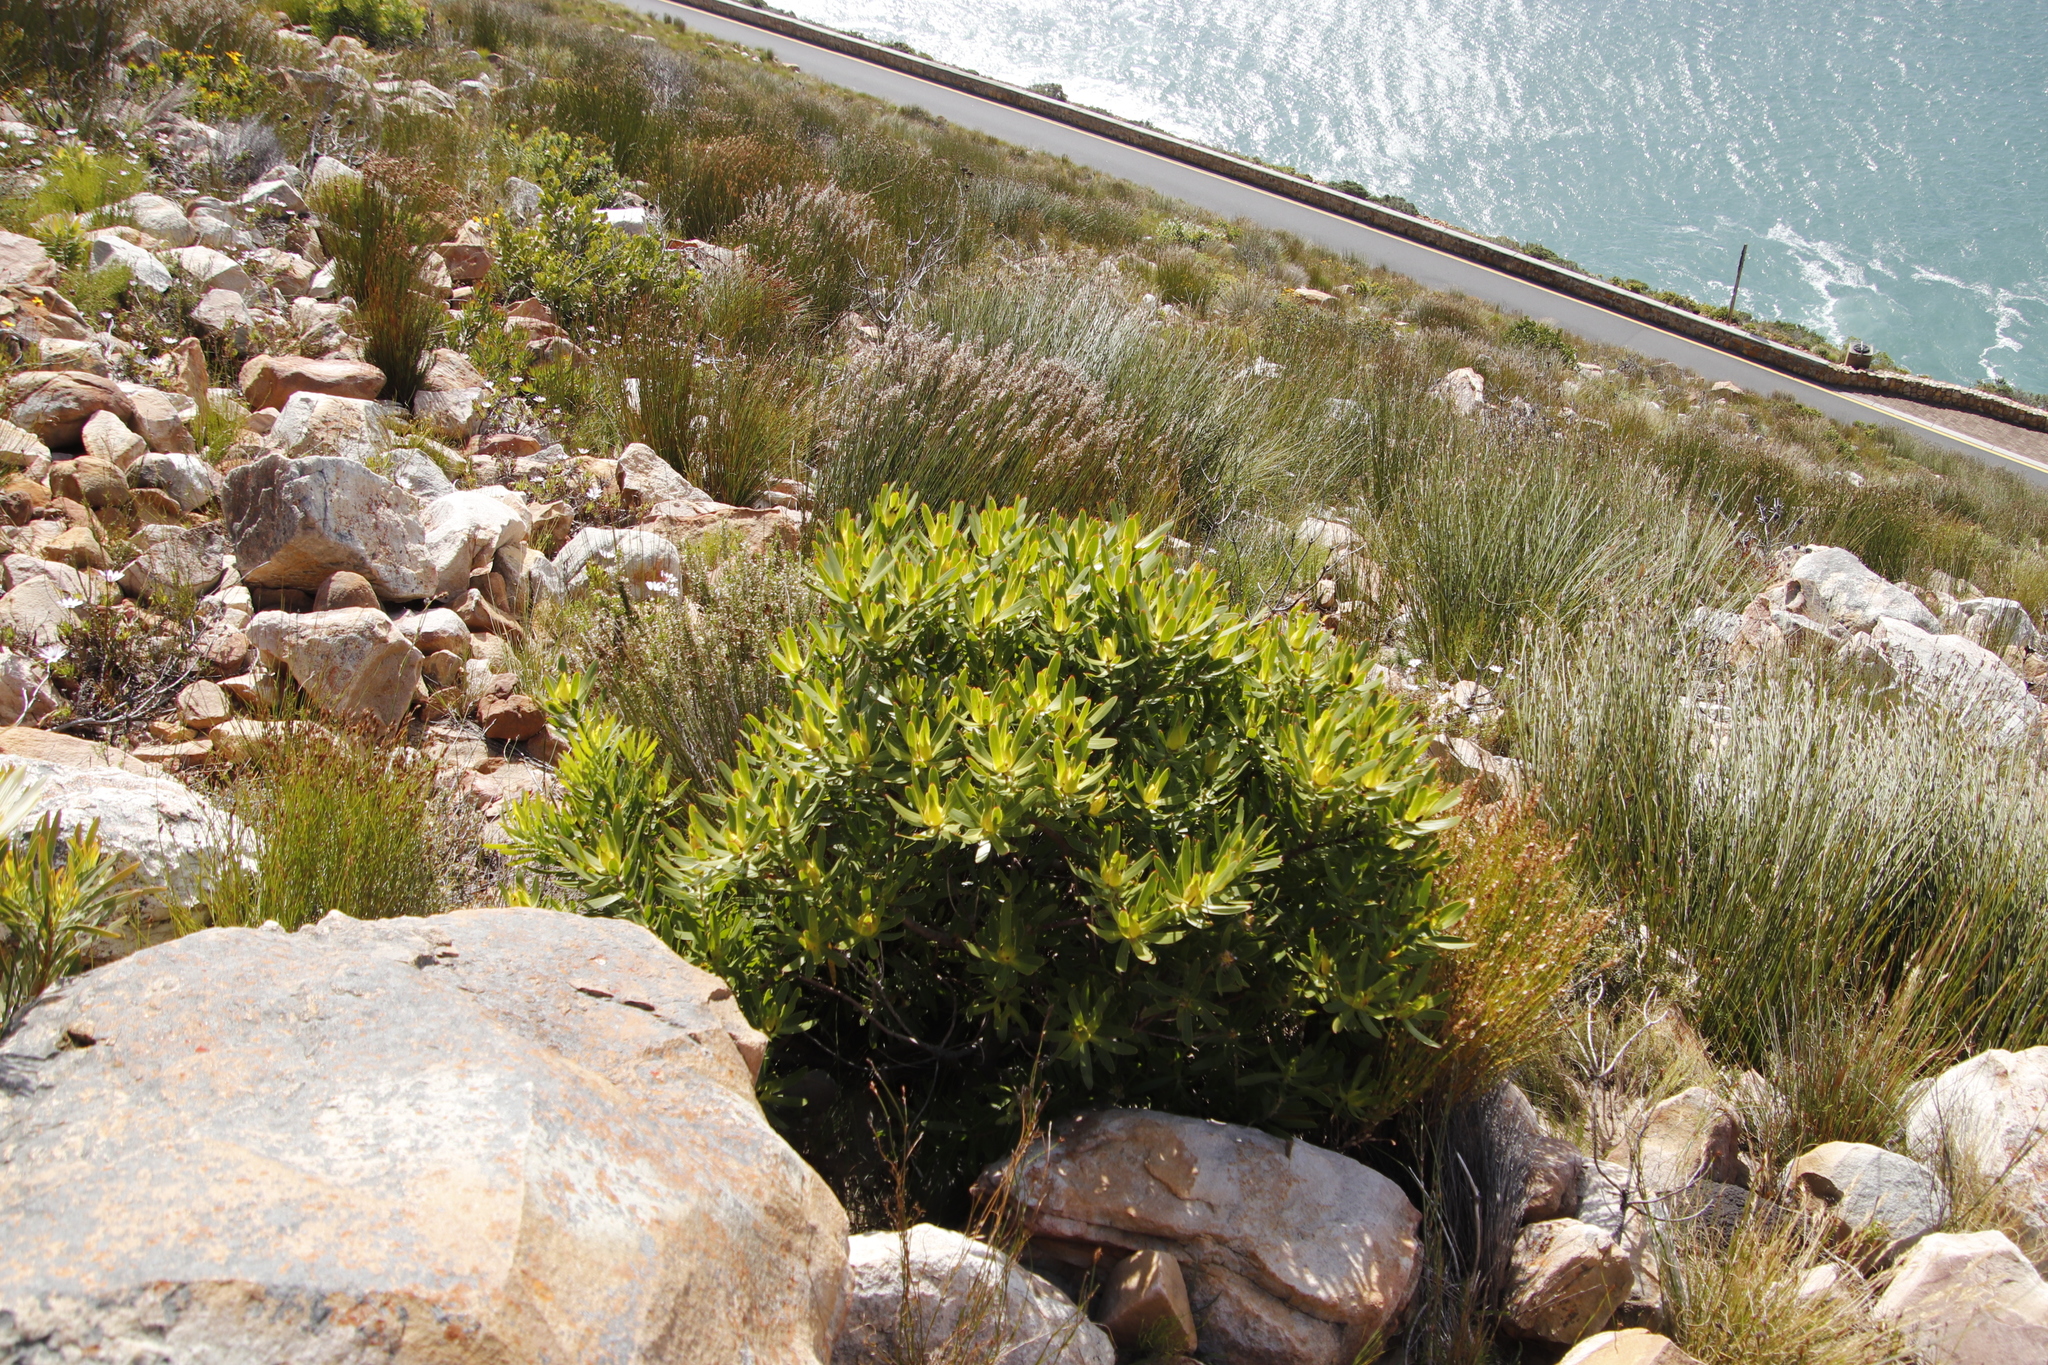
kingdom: Plantae
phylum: Tracheophyta
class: Magnoliopsida
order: Proteales
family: Proteaceae
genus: Leucadendron
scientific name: Leucadendron laureolum
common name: Golden sunshinebush
